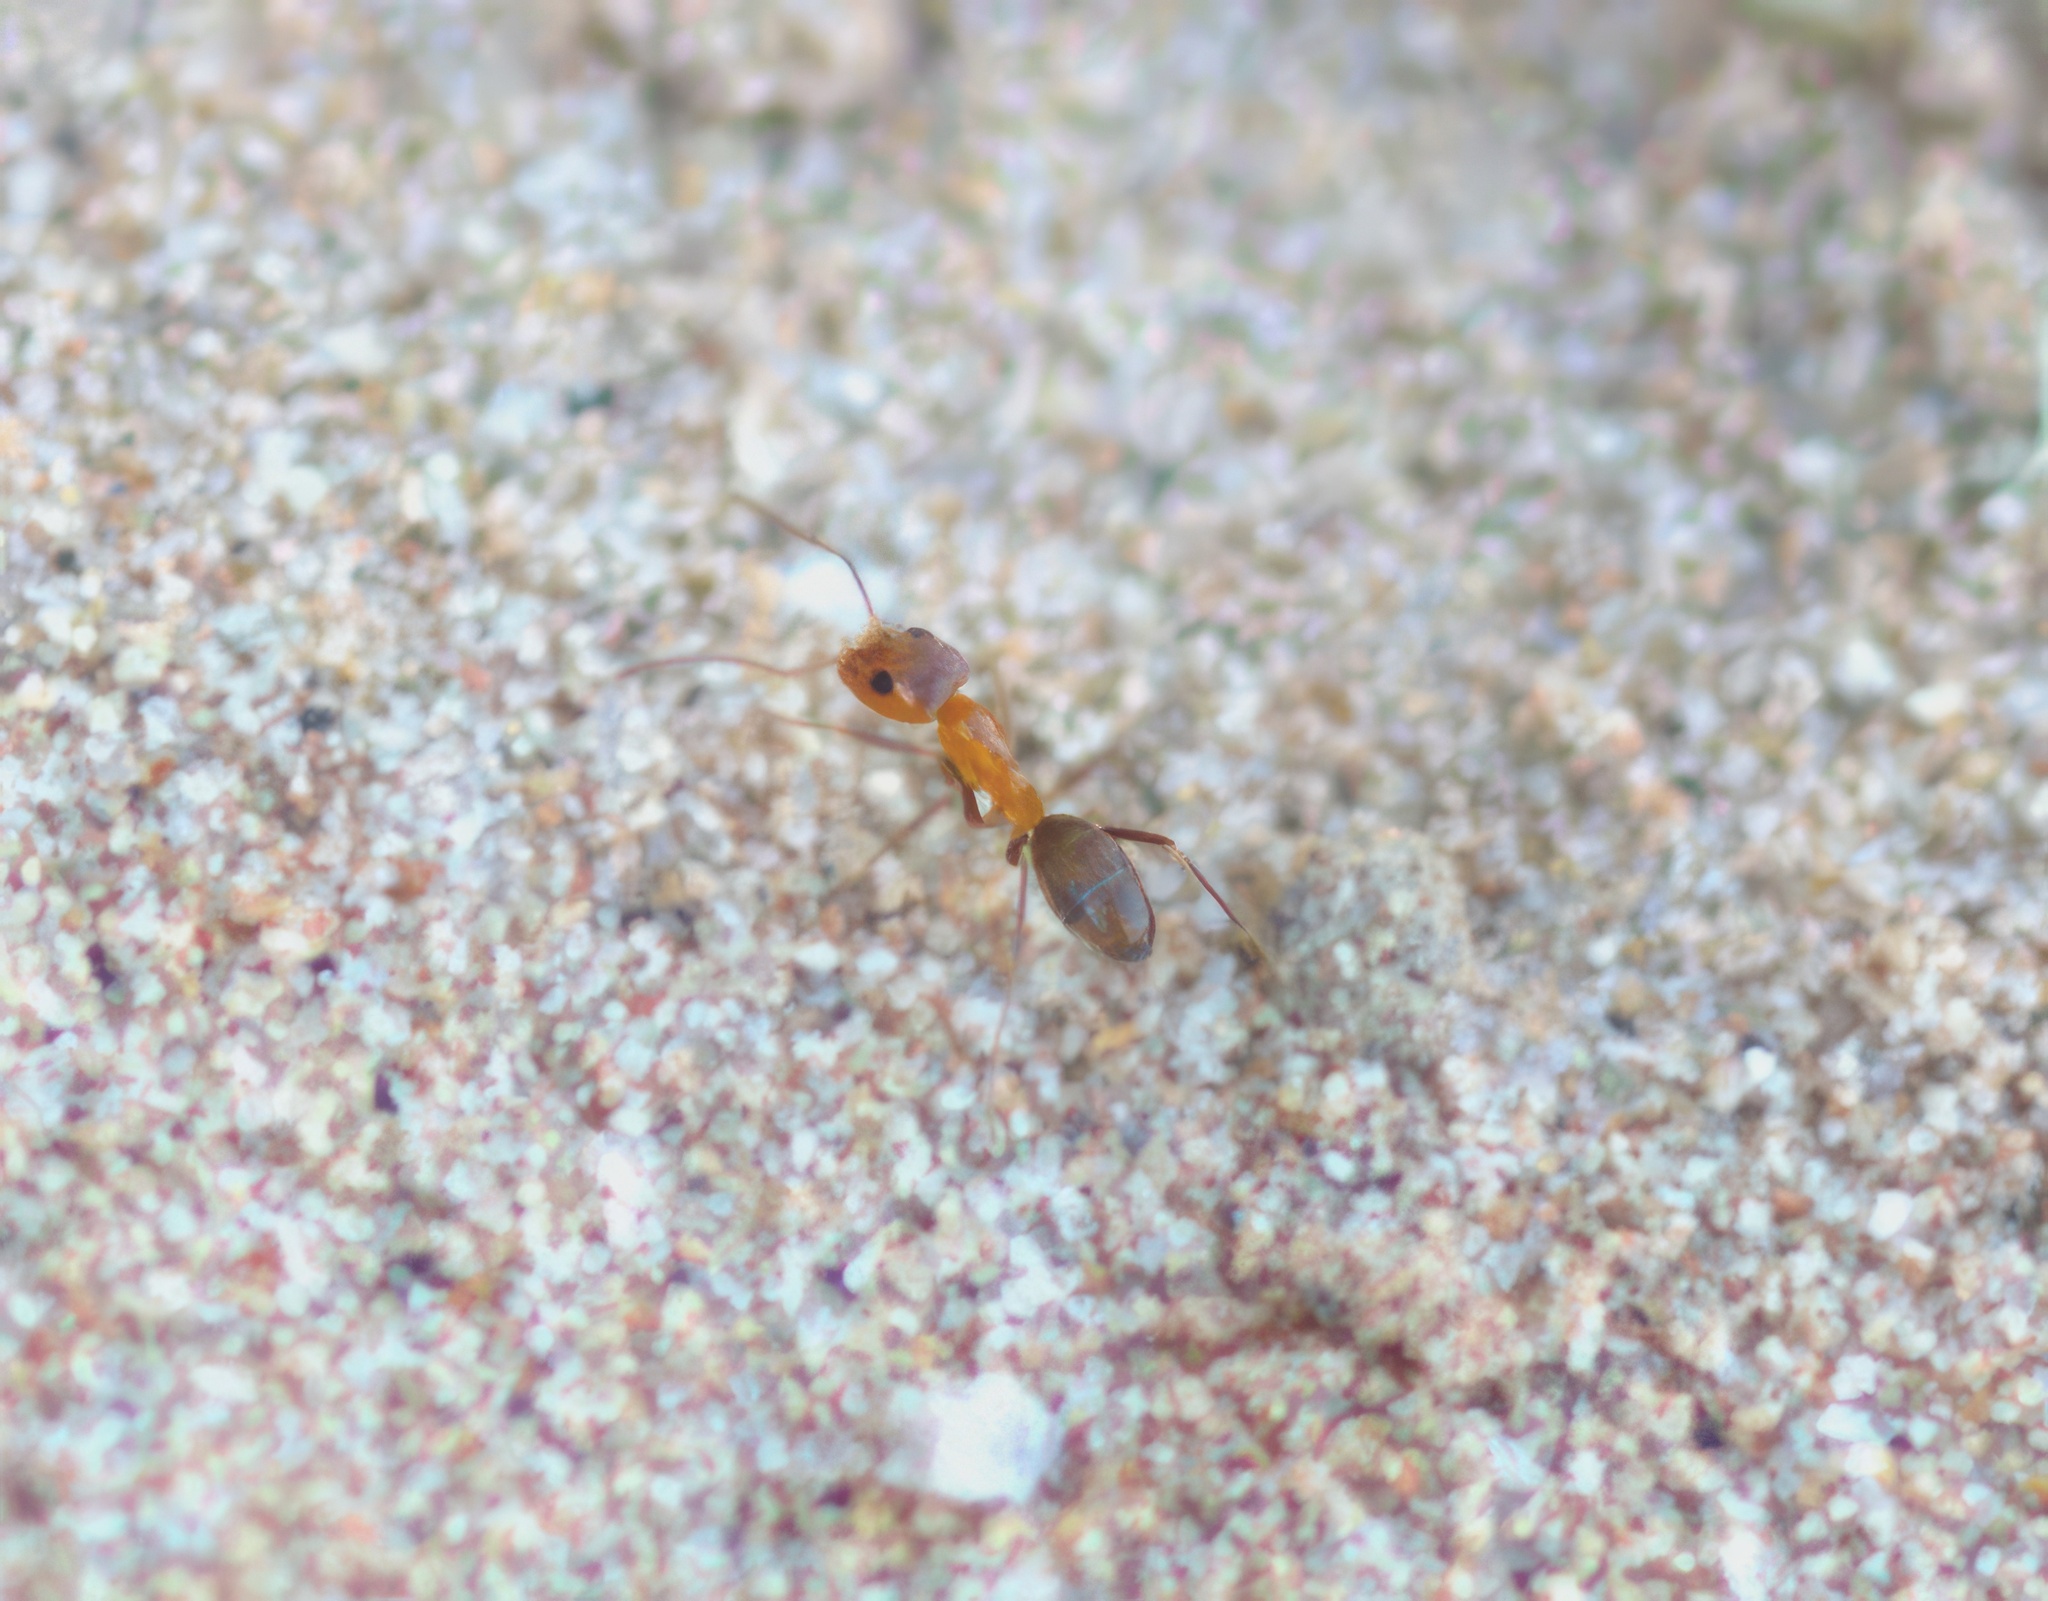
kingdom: Animalia
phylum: Arthropoda
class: Insecta
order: Hymenoptera
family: Formicidae
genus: Dorymyrmex
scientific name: Dorymyrmex bicolor
